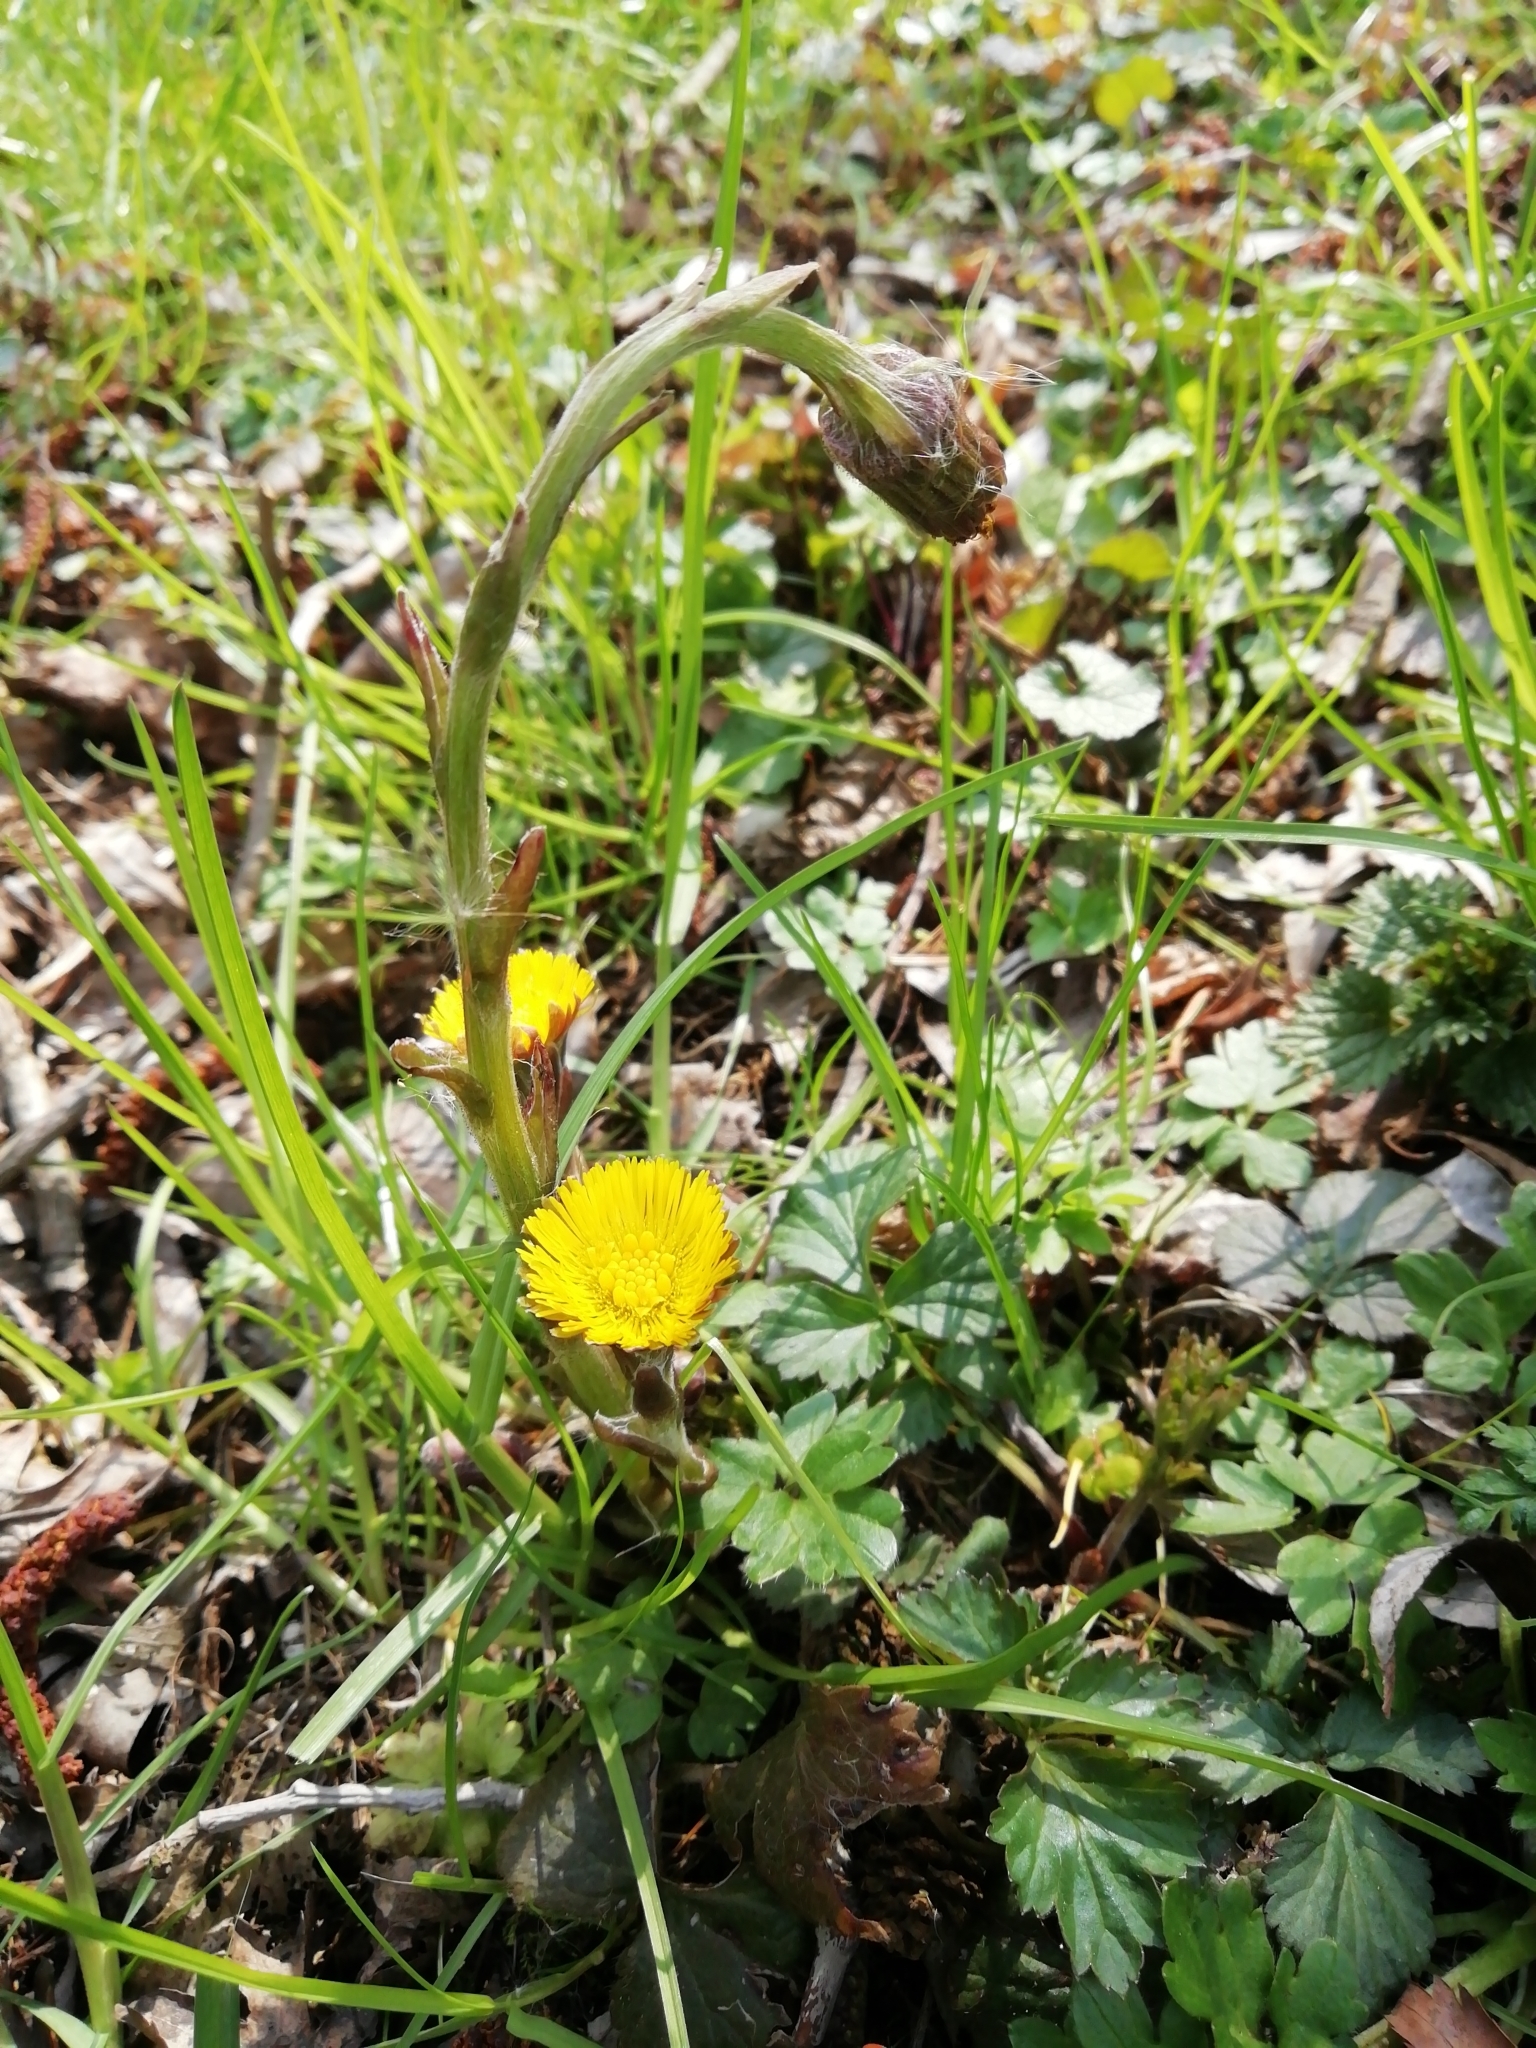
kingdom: Plantae
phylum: Tracheophyta
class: Magnoliopsida
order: Asterales
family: Asteraceae
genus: Tussilago
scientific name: Tussilago farfara
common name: Coltsfoot
